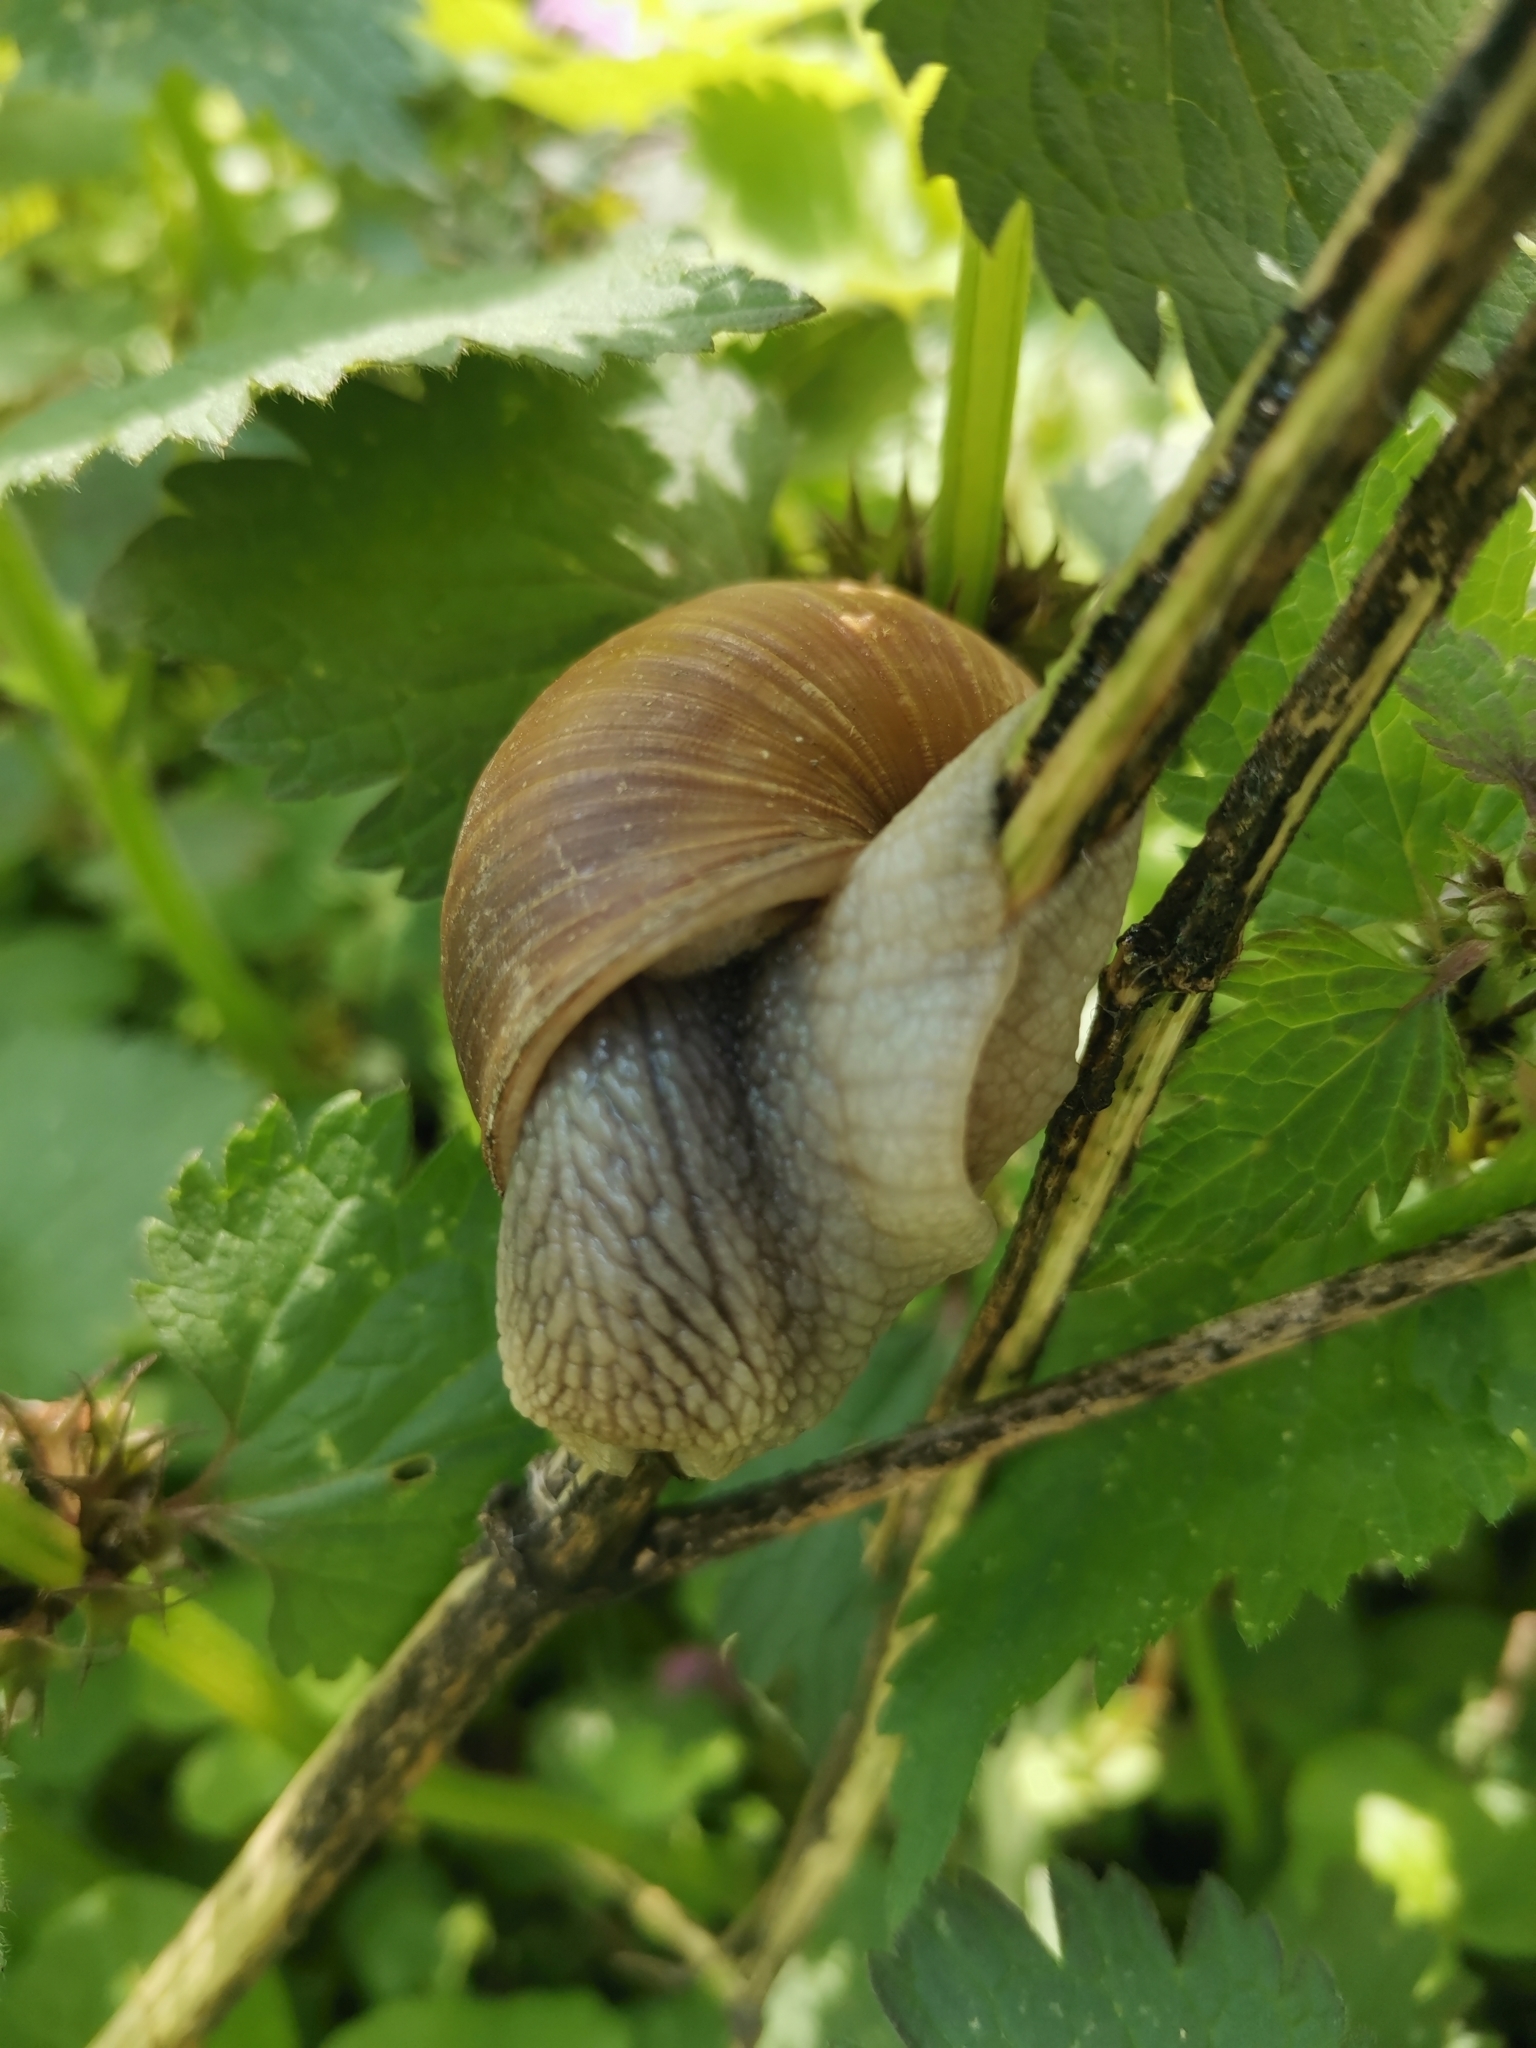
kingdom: Animalia
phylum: Mollusca
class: Gastropoda
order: Stylommatophora
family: Helicidae
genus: Helix
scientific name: Helix pomatia
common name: Roman snail
